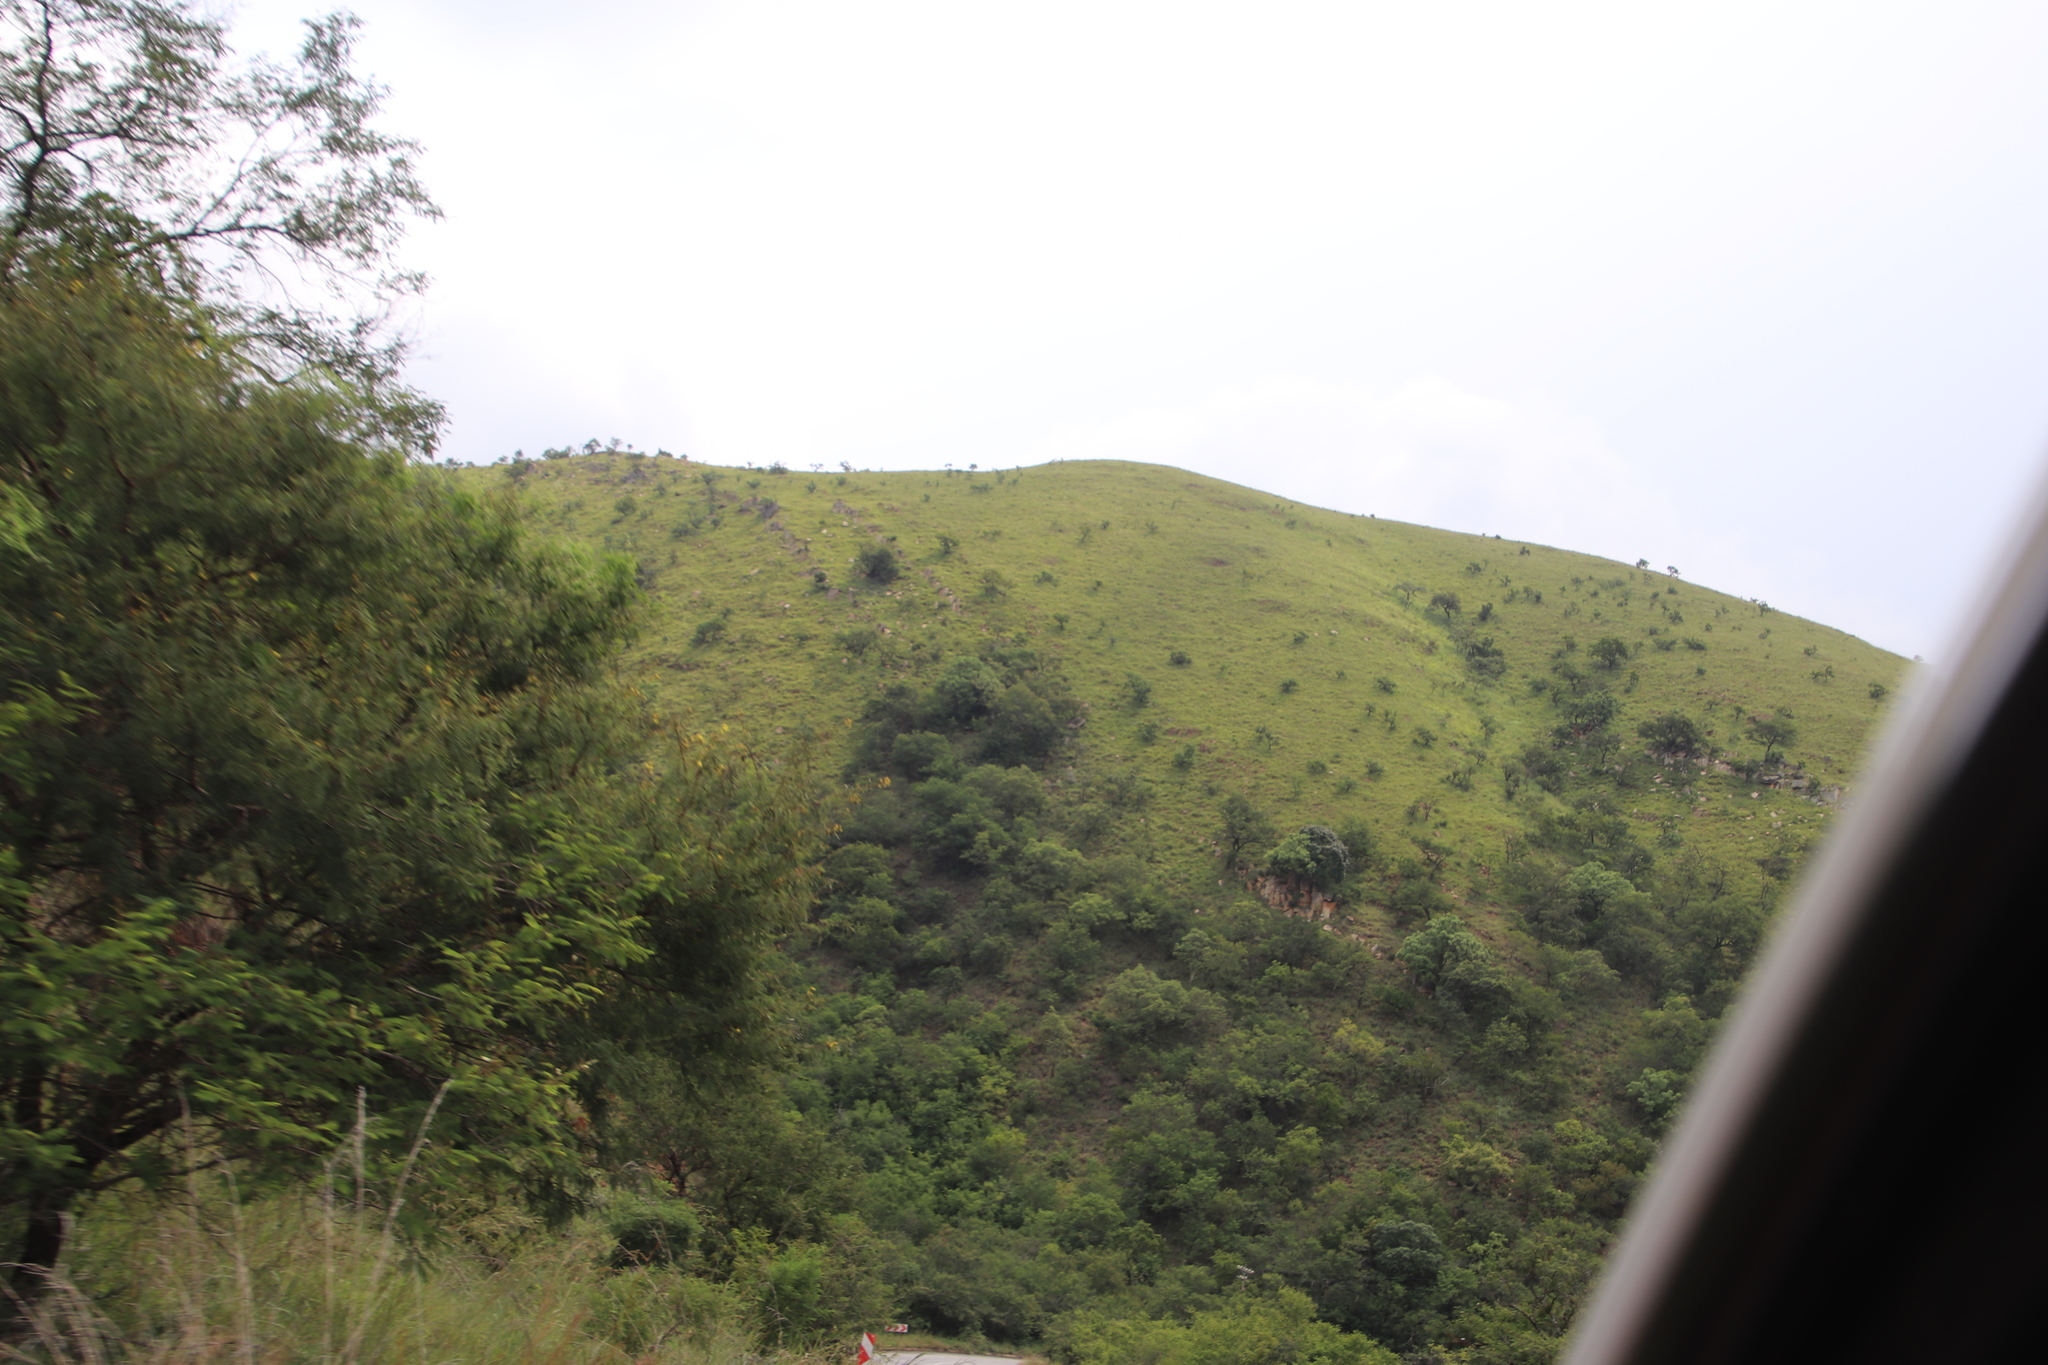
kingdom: Plantae
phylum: Tracheophyta
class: Magnoliopsida
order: Proteales
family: Proteaceae
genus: Protea
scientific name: Protea gaguedi
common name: African protea
